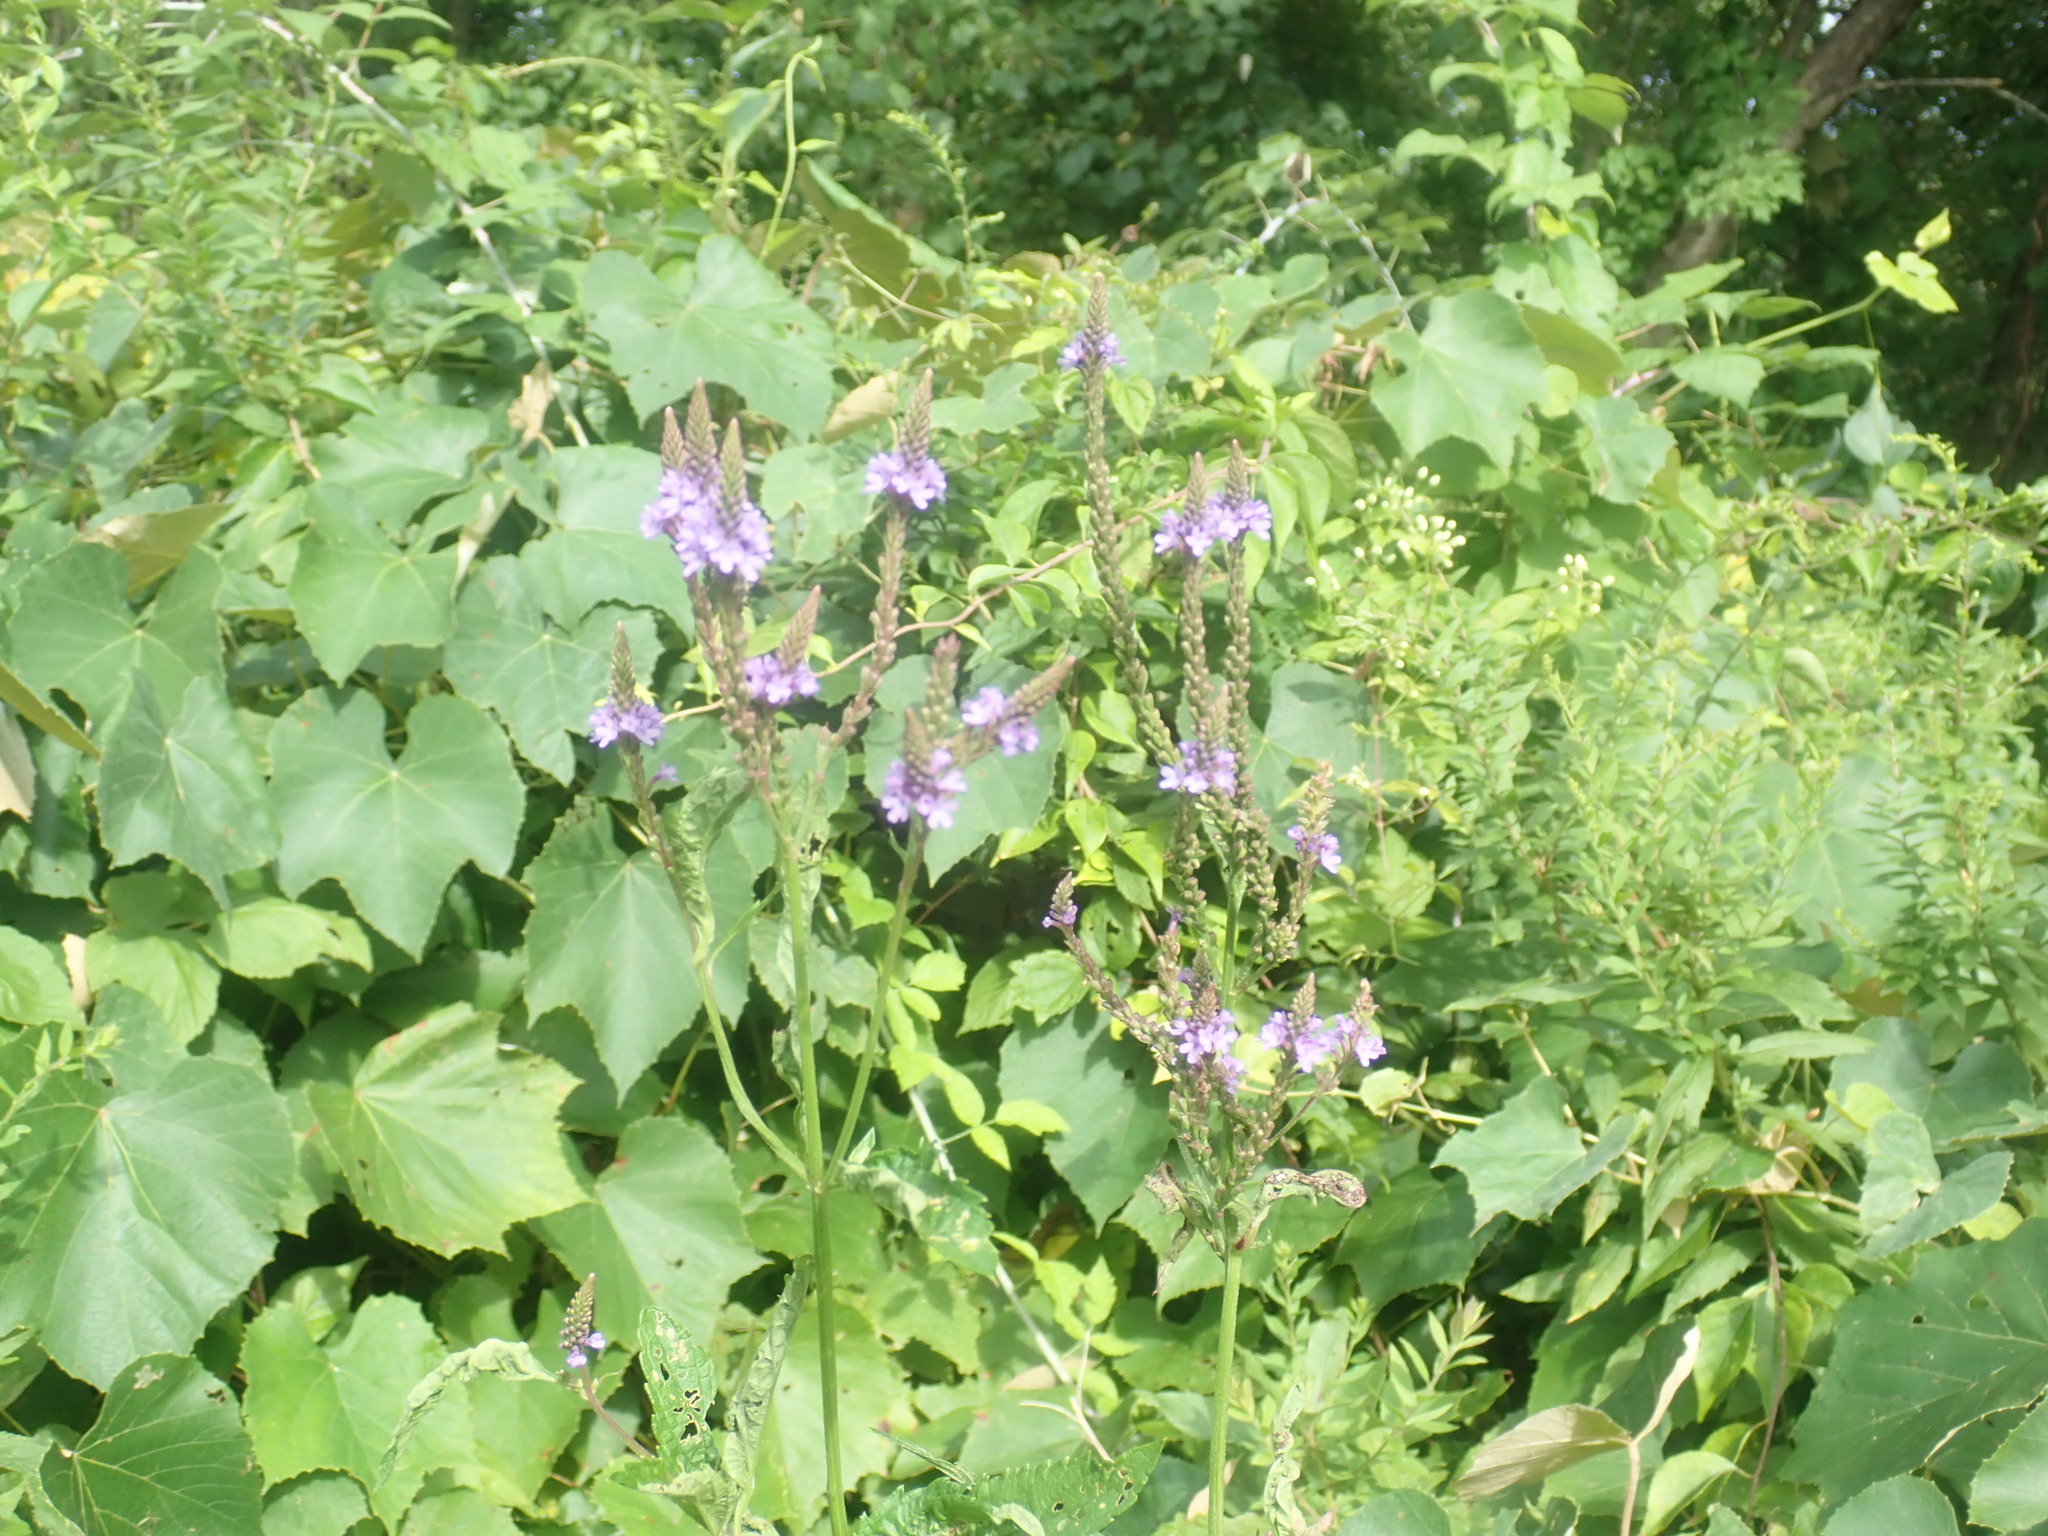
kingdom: Plantae
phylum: Tracheophyta
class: Magnoliopsida
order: Lamiales
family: Verbenaceae
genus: Verbena
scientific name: Verbena hastata
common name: American blue vervain
